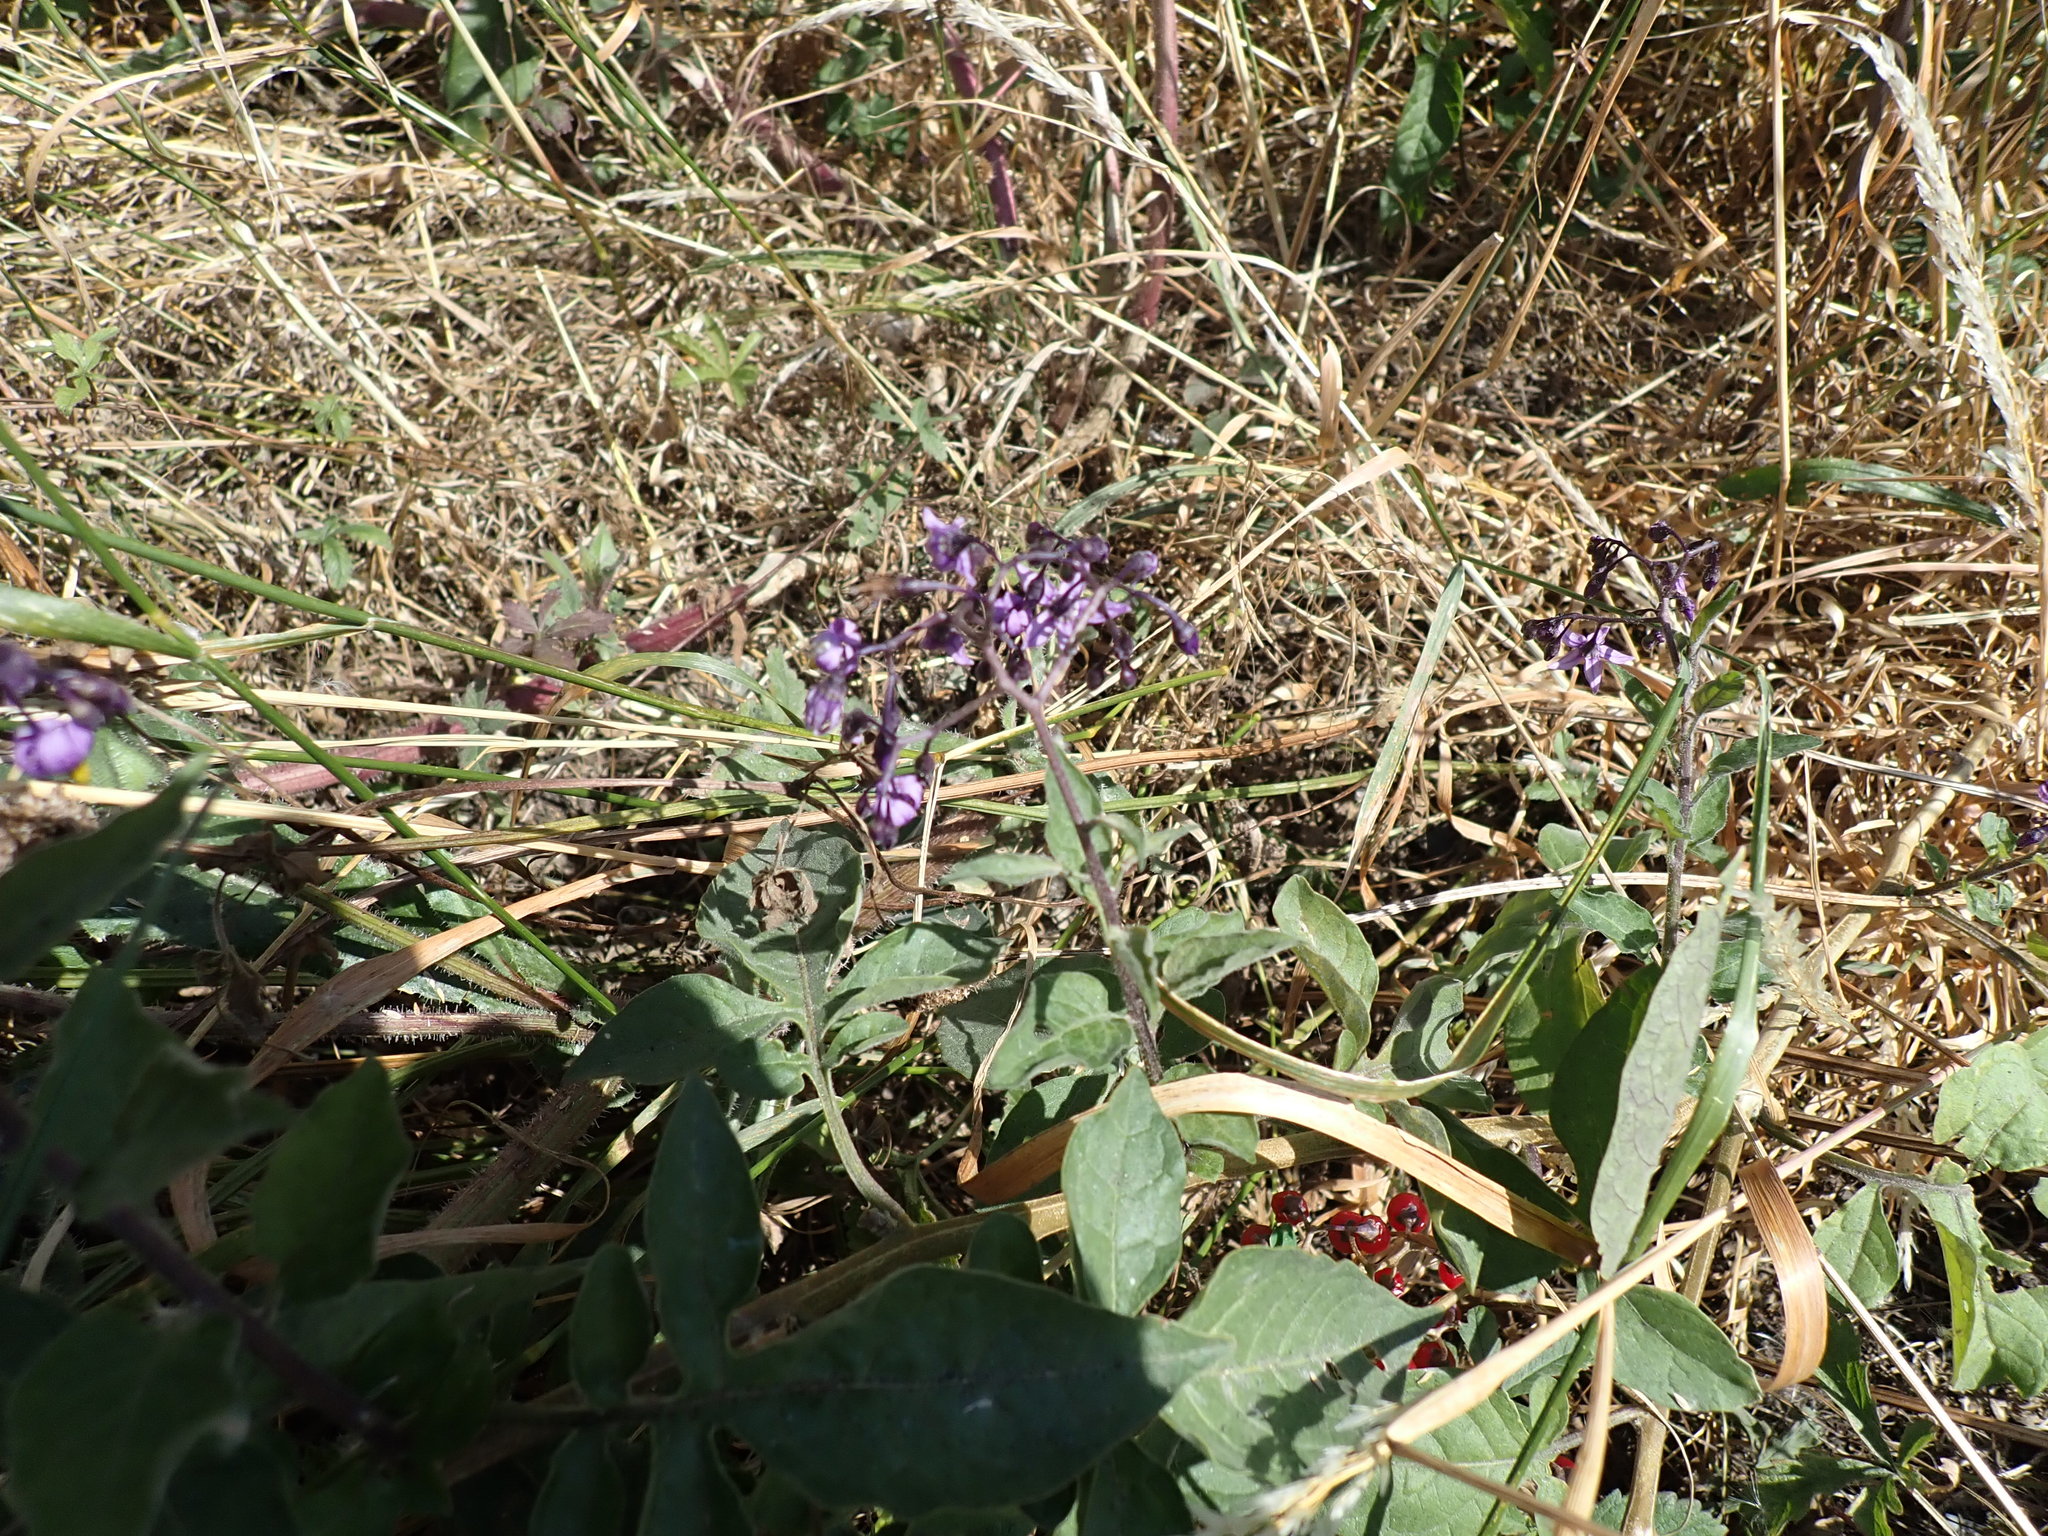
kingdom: Plantae
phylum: Tracheophyta
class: Magnoliopsida
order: Solanales
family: Solanaceae
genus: Solanum
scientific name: Solanum dulcamara
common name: Climbing nightshade
